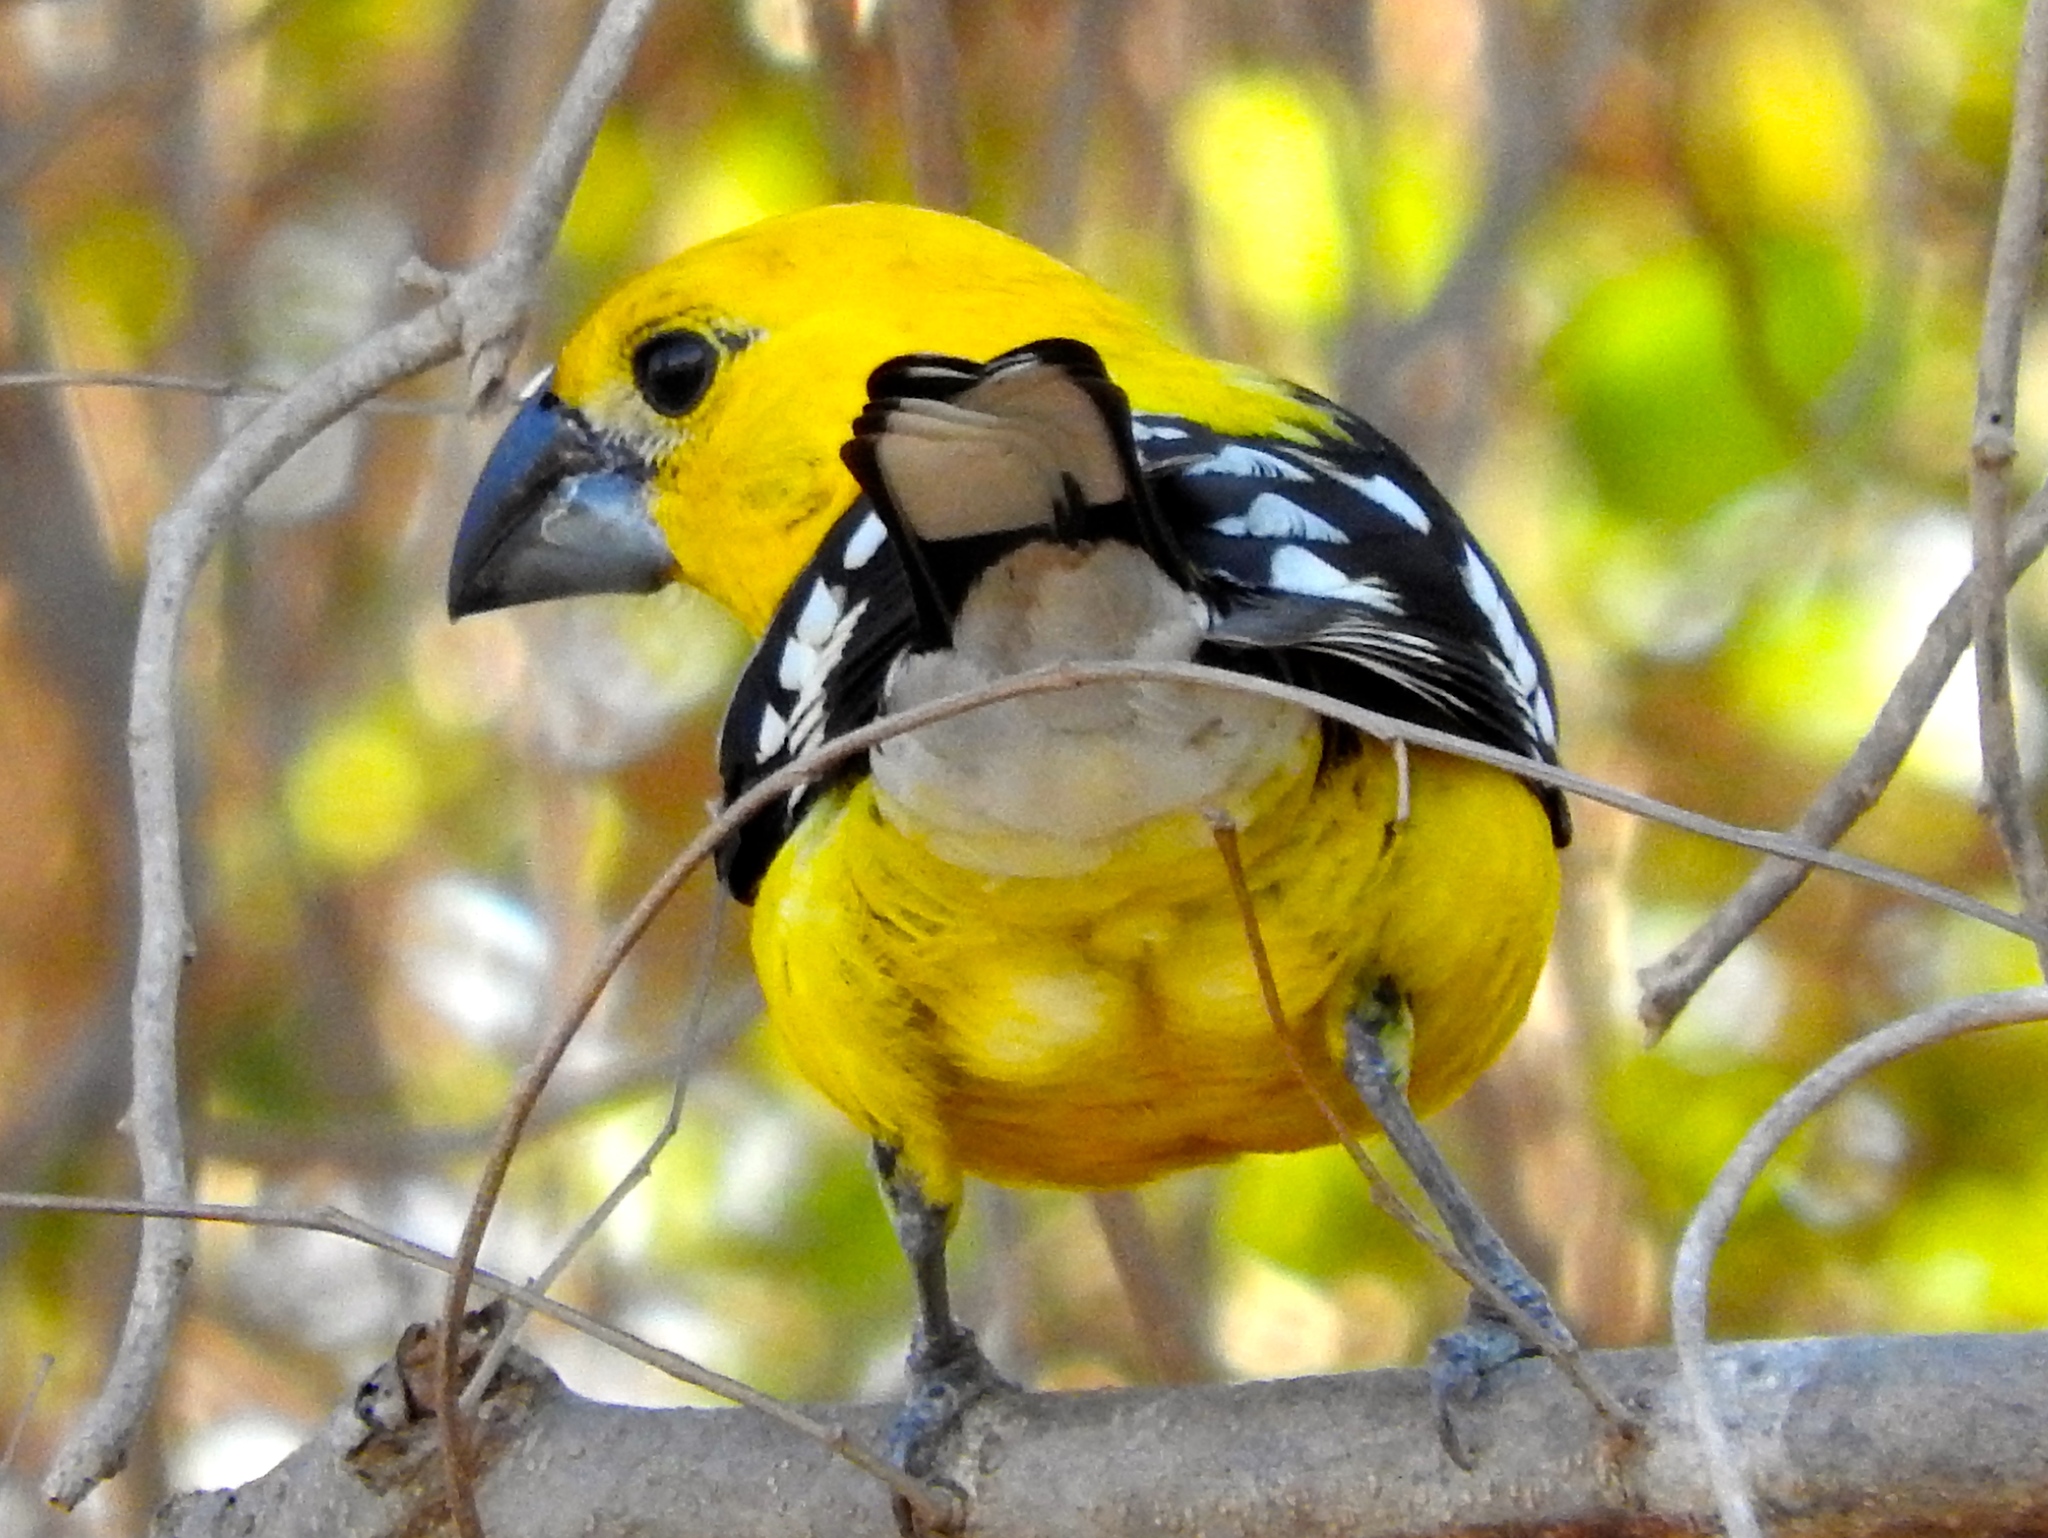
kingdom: Animalia
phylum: Chordata
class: Aves
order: Passeriformes
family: Cardinalidae
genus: Pheucticus
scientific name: Pheucticus chrysopeplus
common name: Yellow grosbeak
